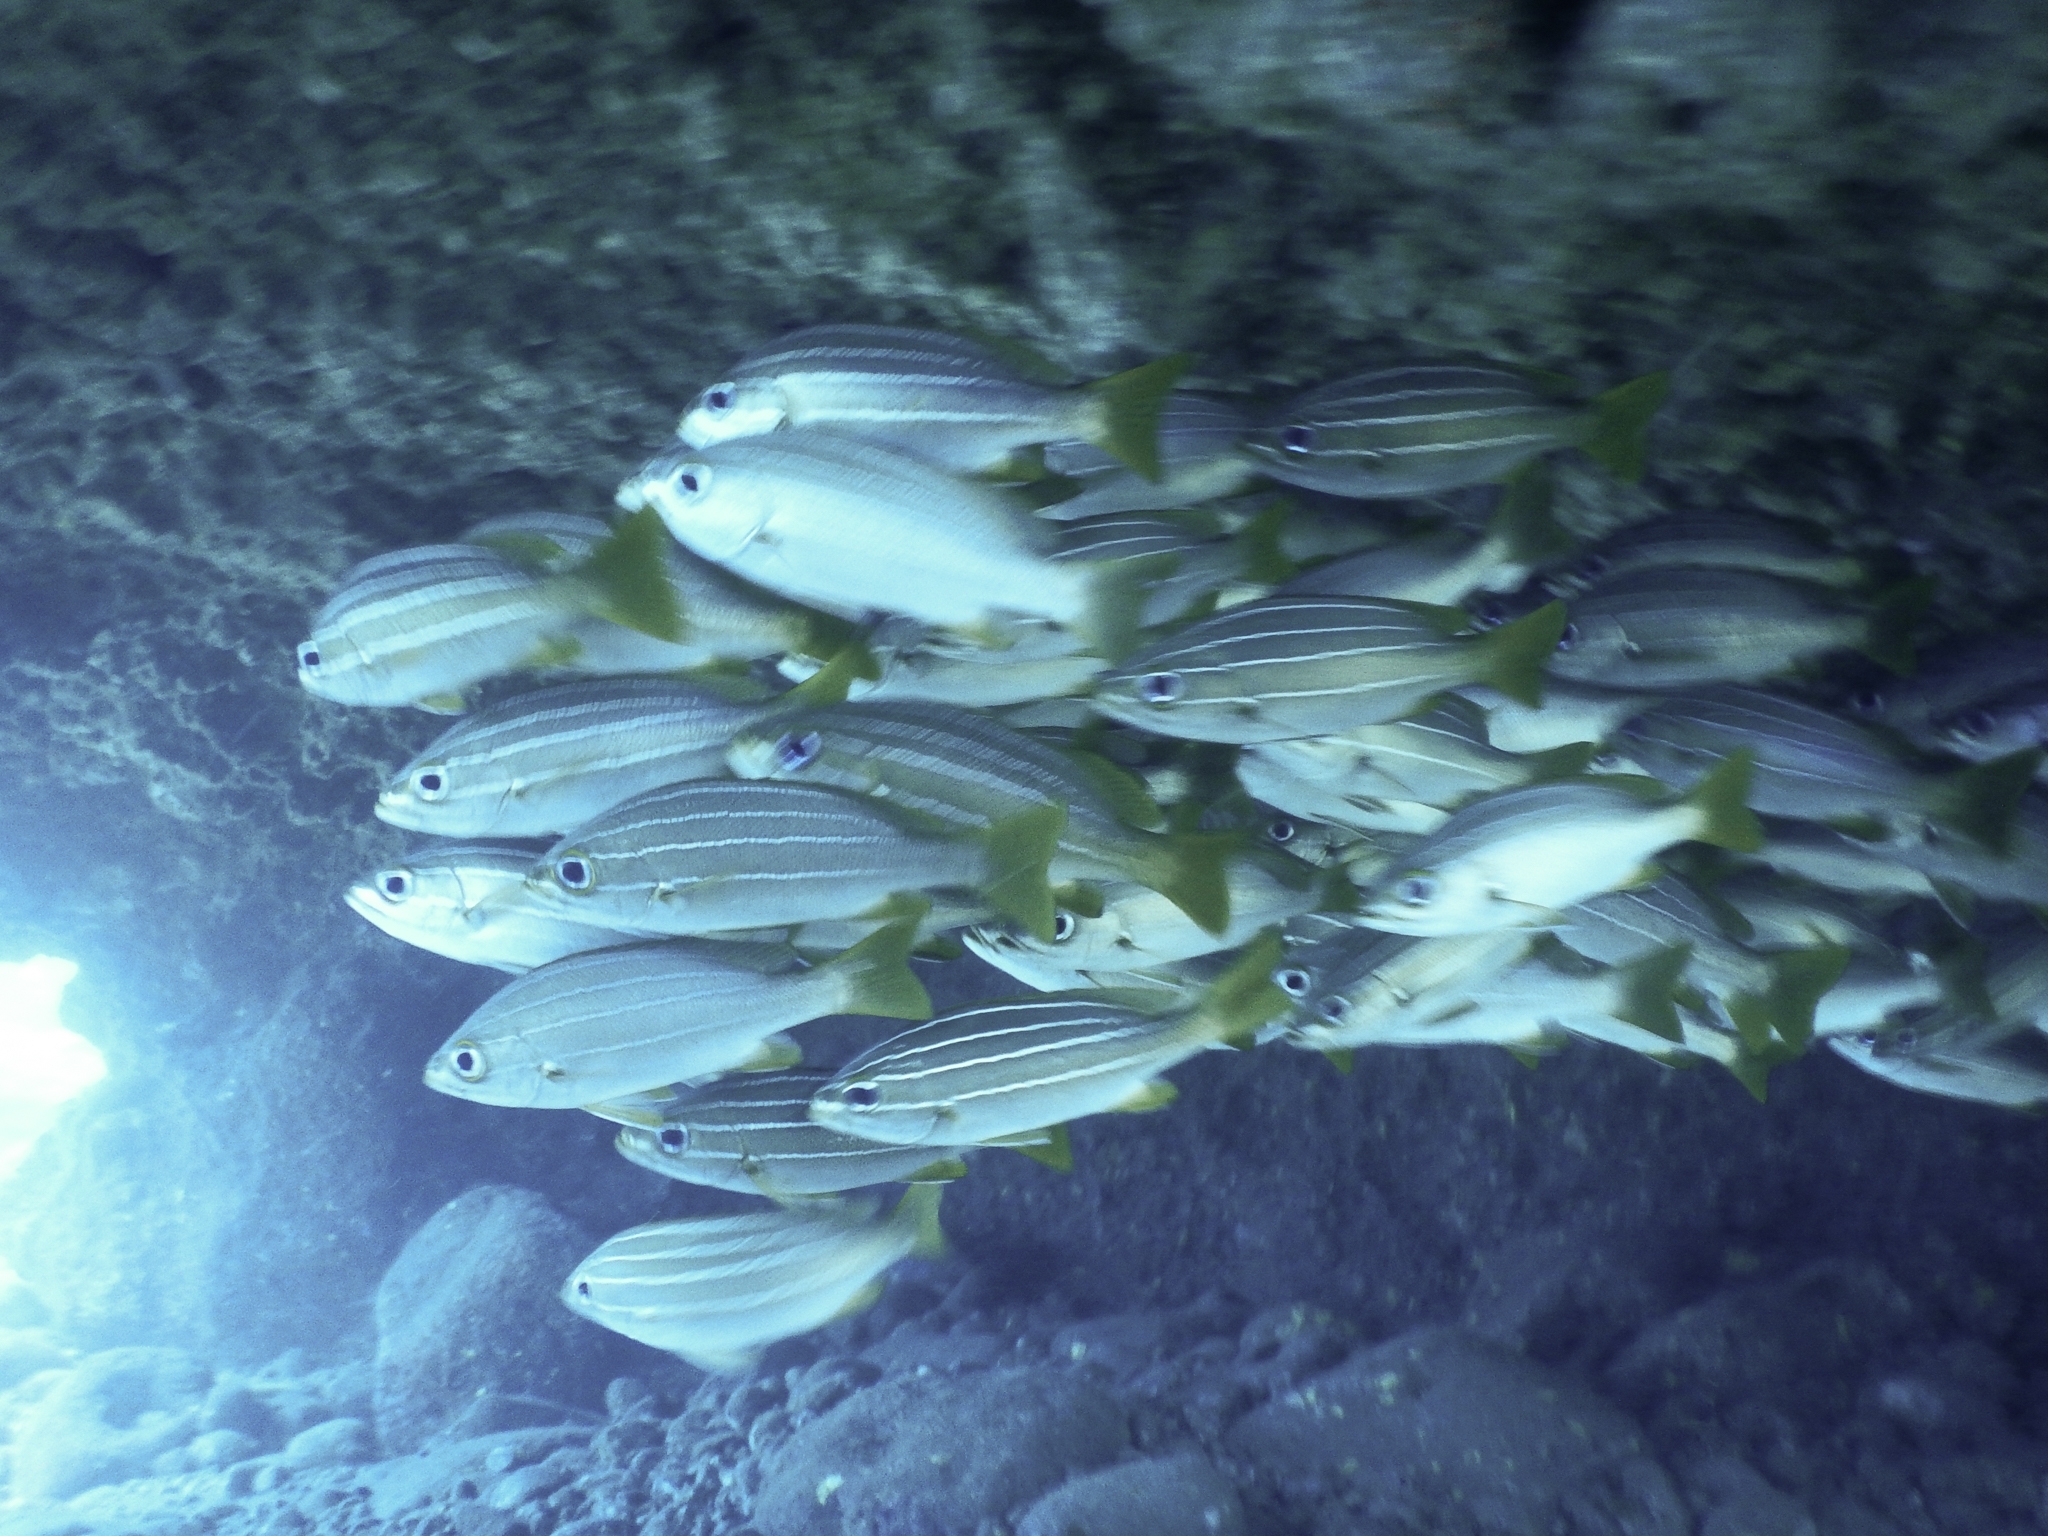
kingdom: Animalia
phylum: Chordata
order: Perciformes
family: Haemulidae
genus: Parapristipoma
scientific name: Parapristipoma octolineatum
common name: African striped grunt
